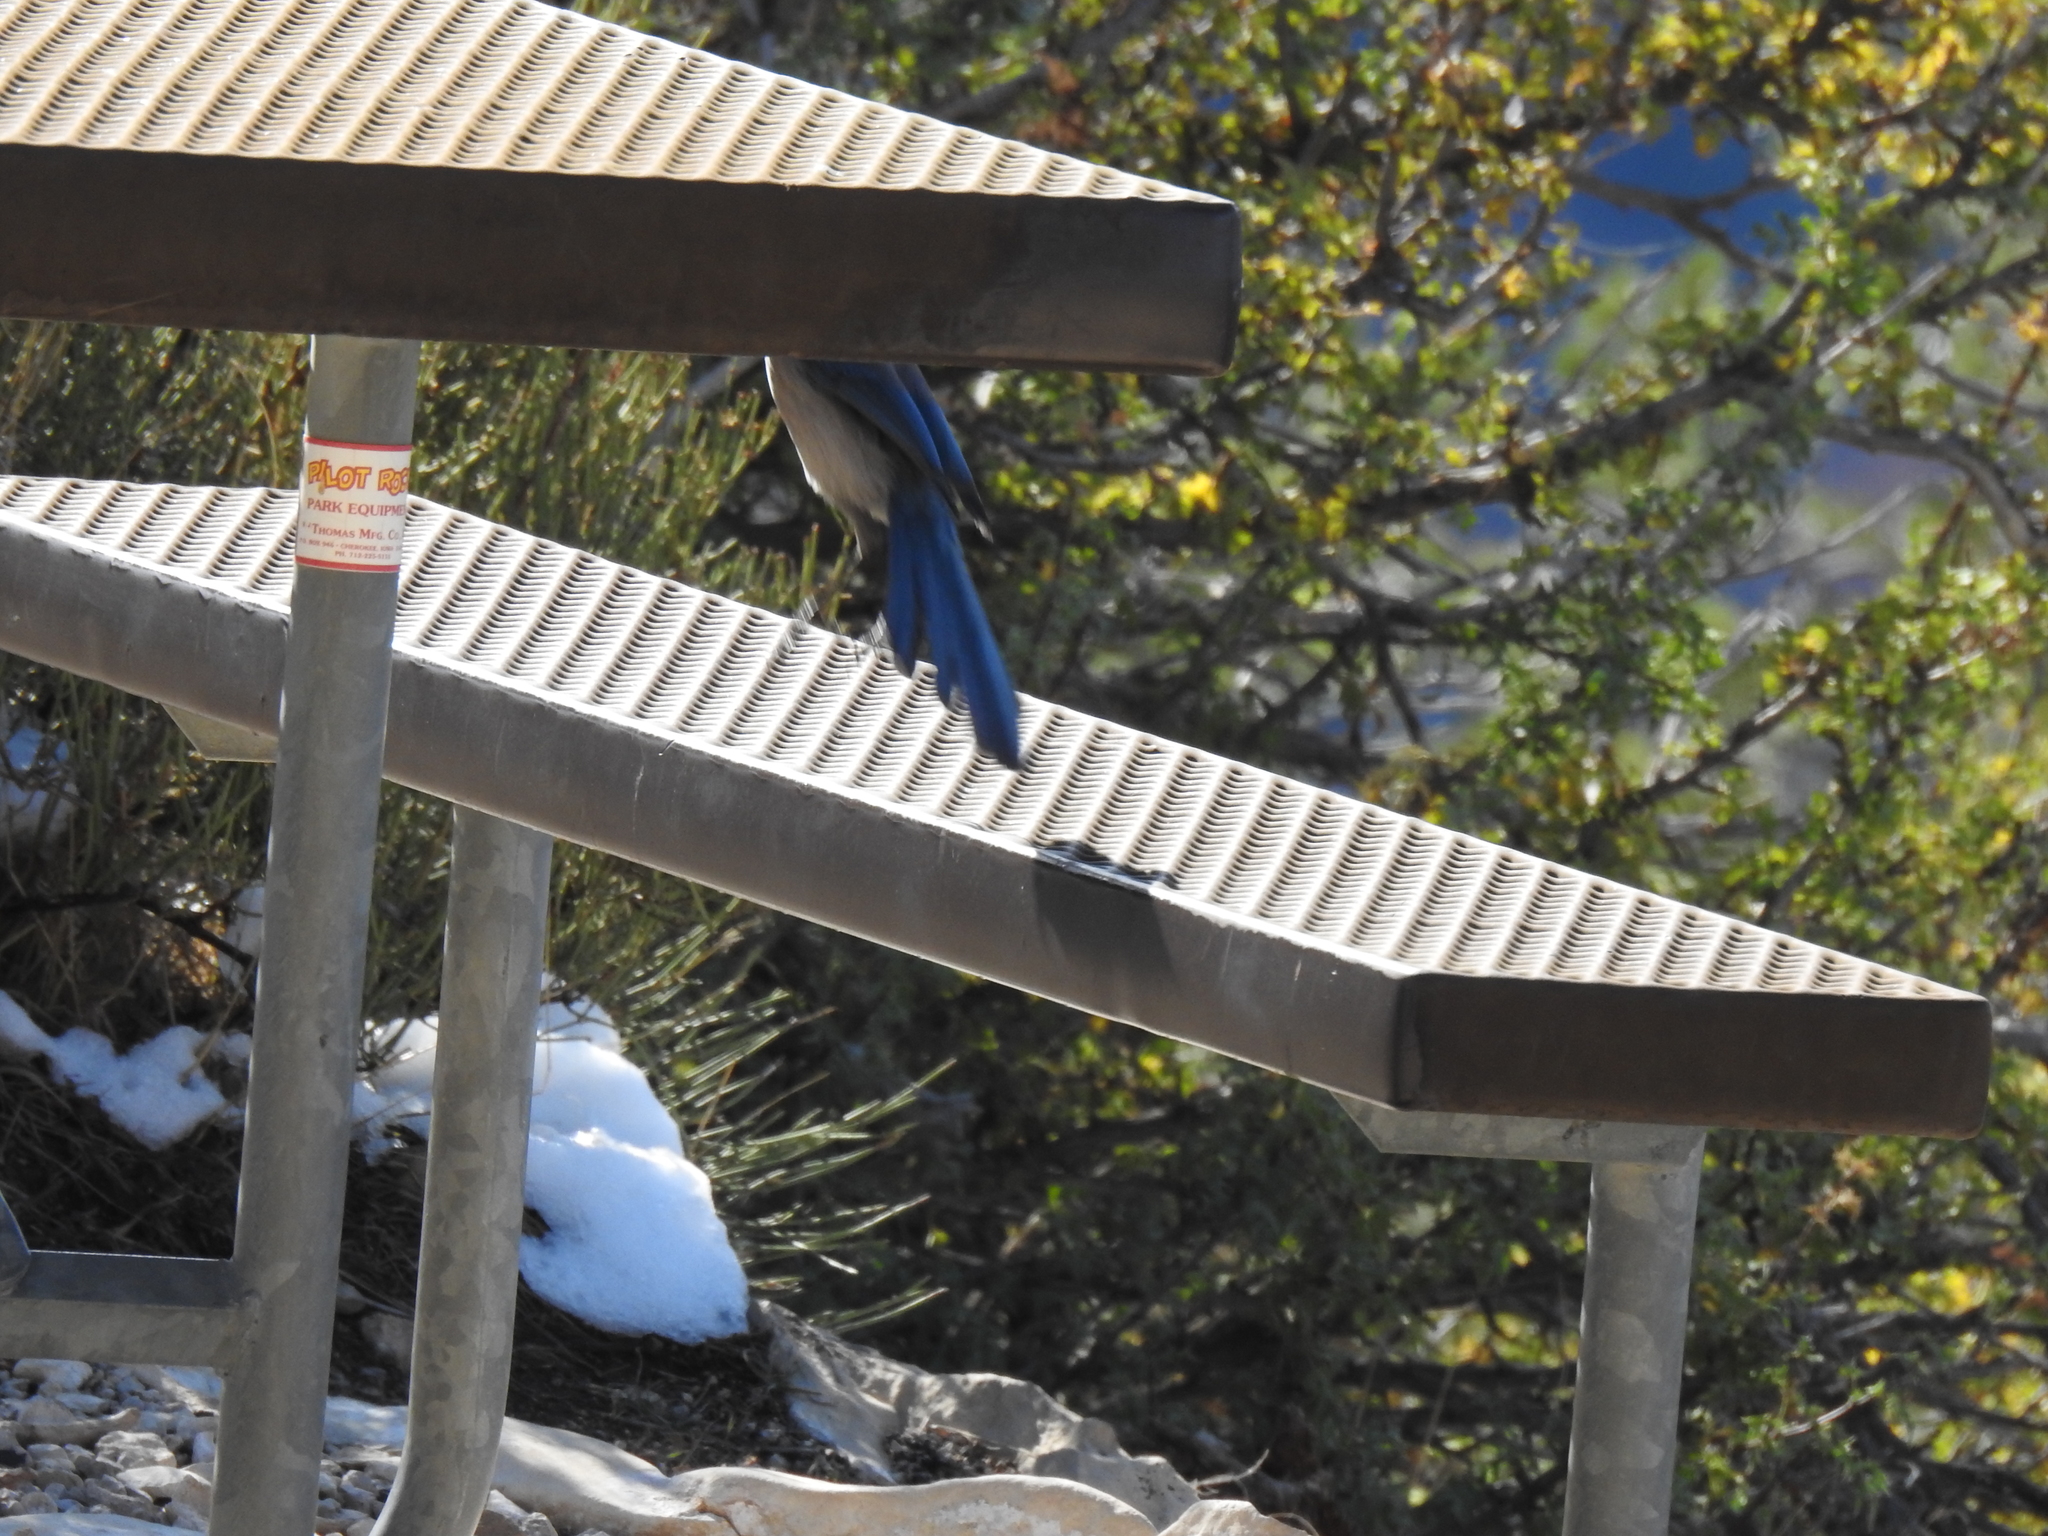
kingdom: Animalia
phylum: Chordata
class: Aves
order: Passeriformes
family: Corvidae
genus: Aphelocoma
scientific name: Aphelocoma woodhouseii
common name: Woodhouse's scrub-jay
